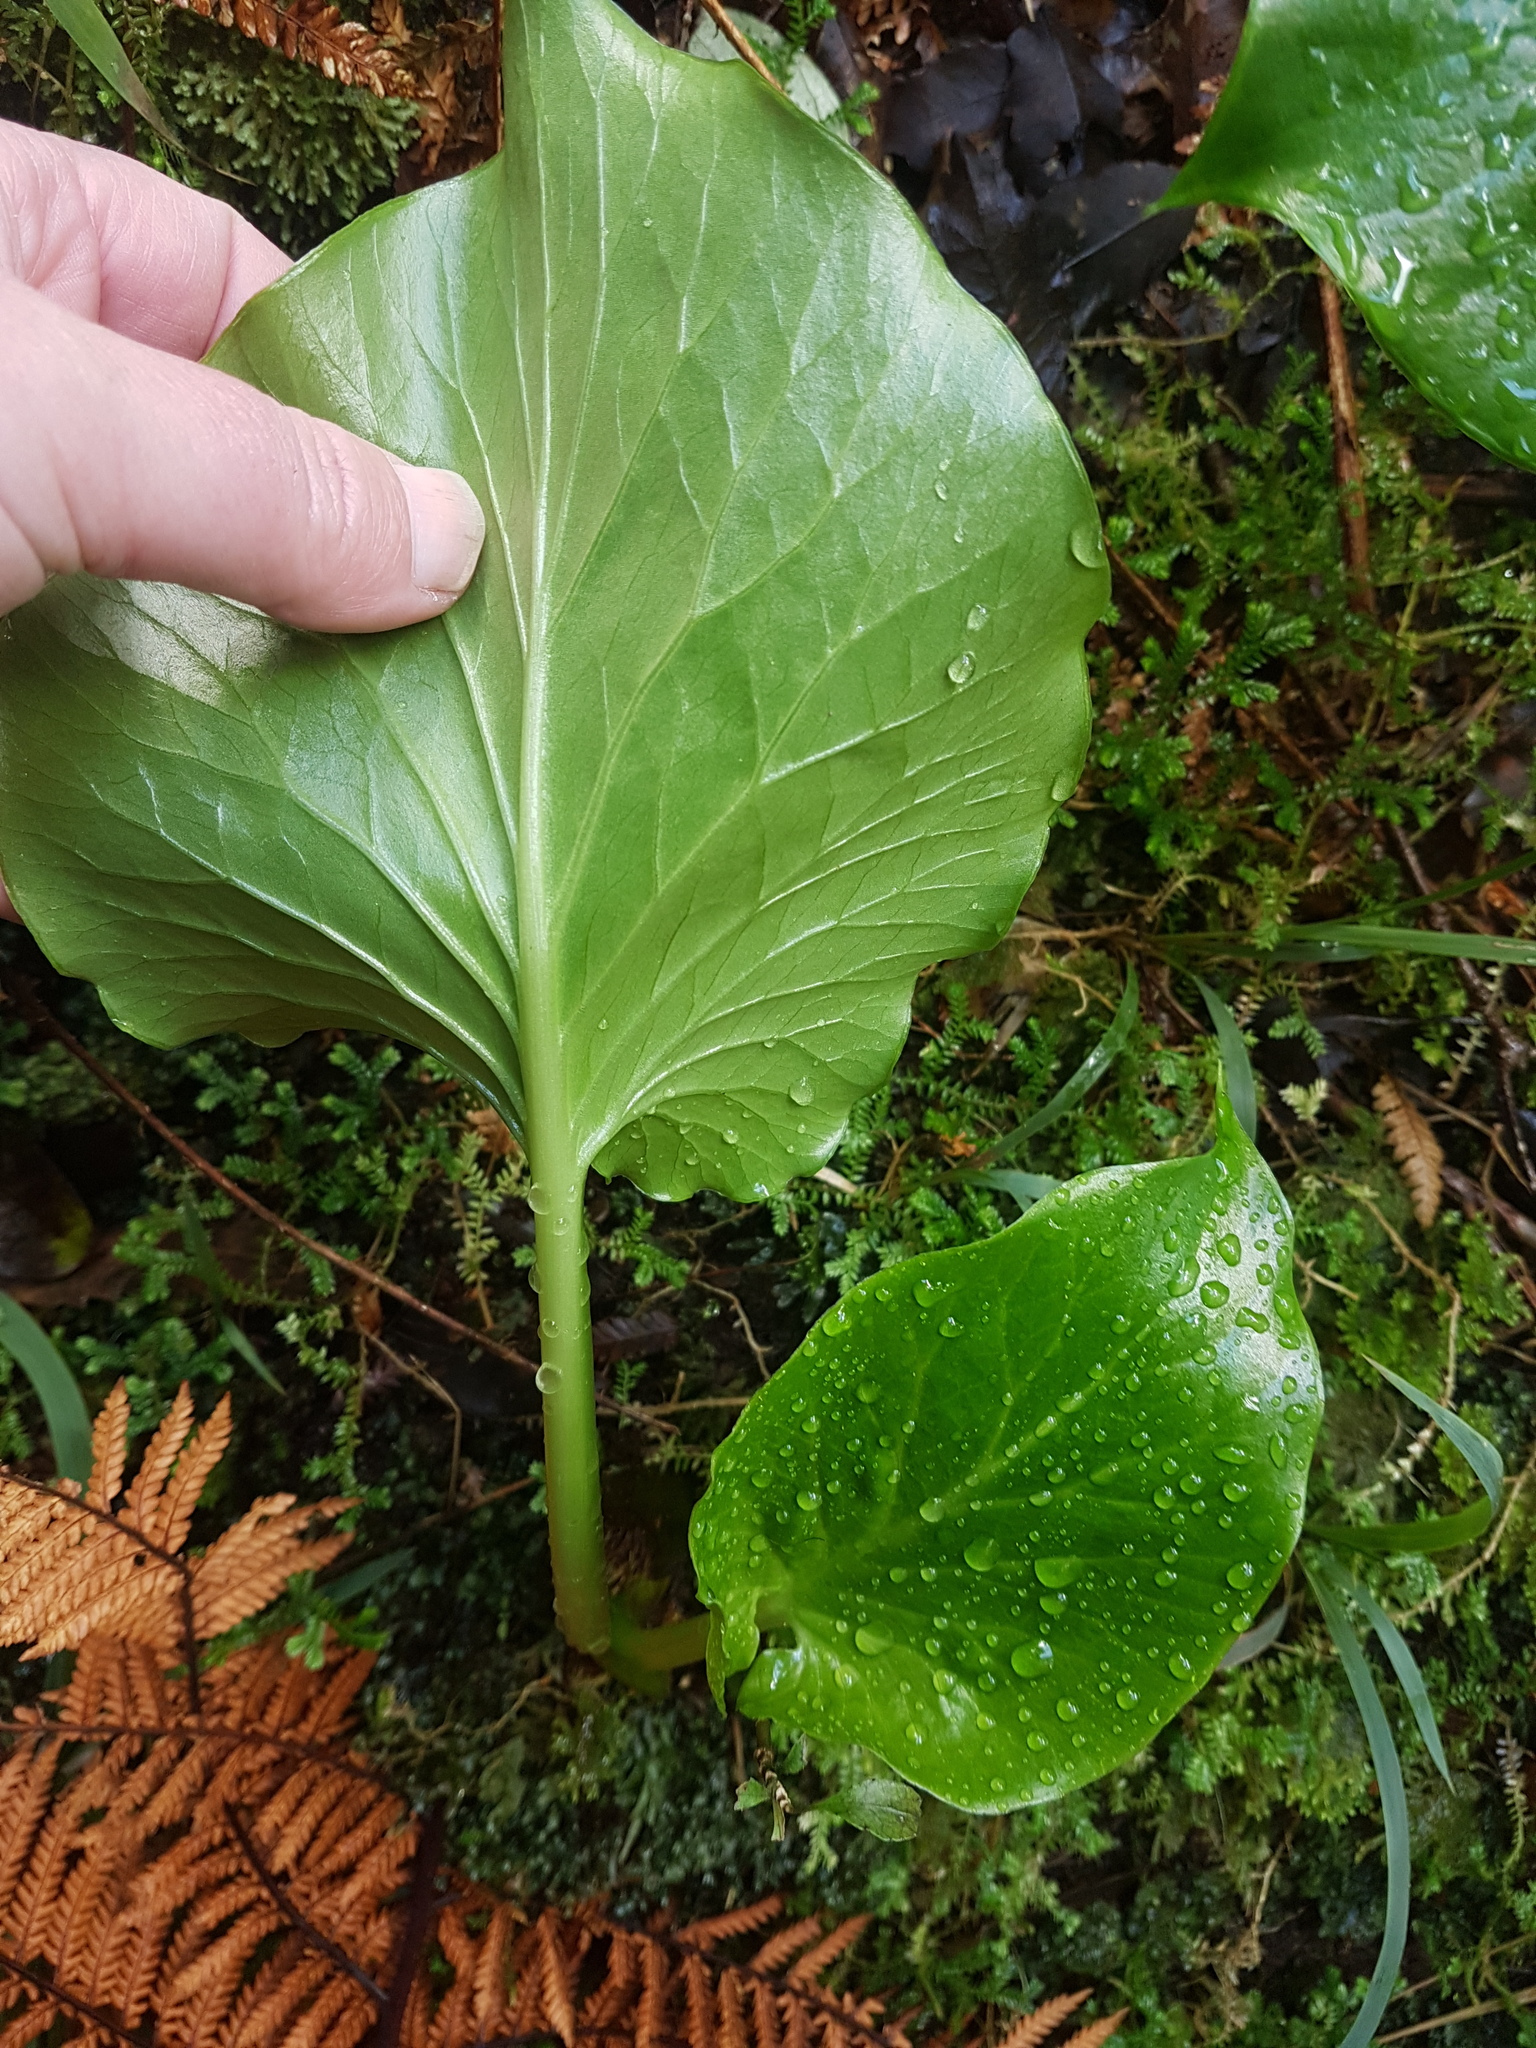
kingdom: Plantae
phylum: Tracheophyta
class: Liliopsida
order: Liliales
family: Liliaceae
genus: Cardiocrinum
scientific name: Cardiocrinum giganteum
